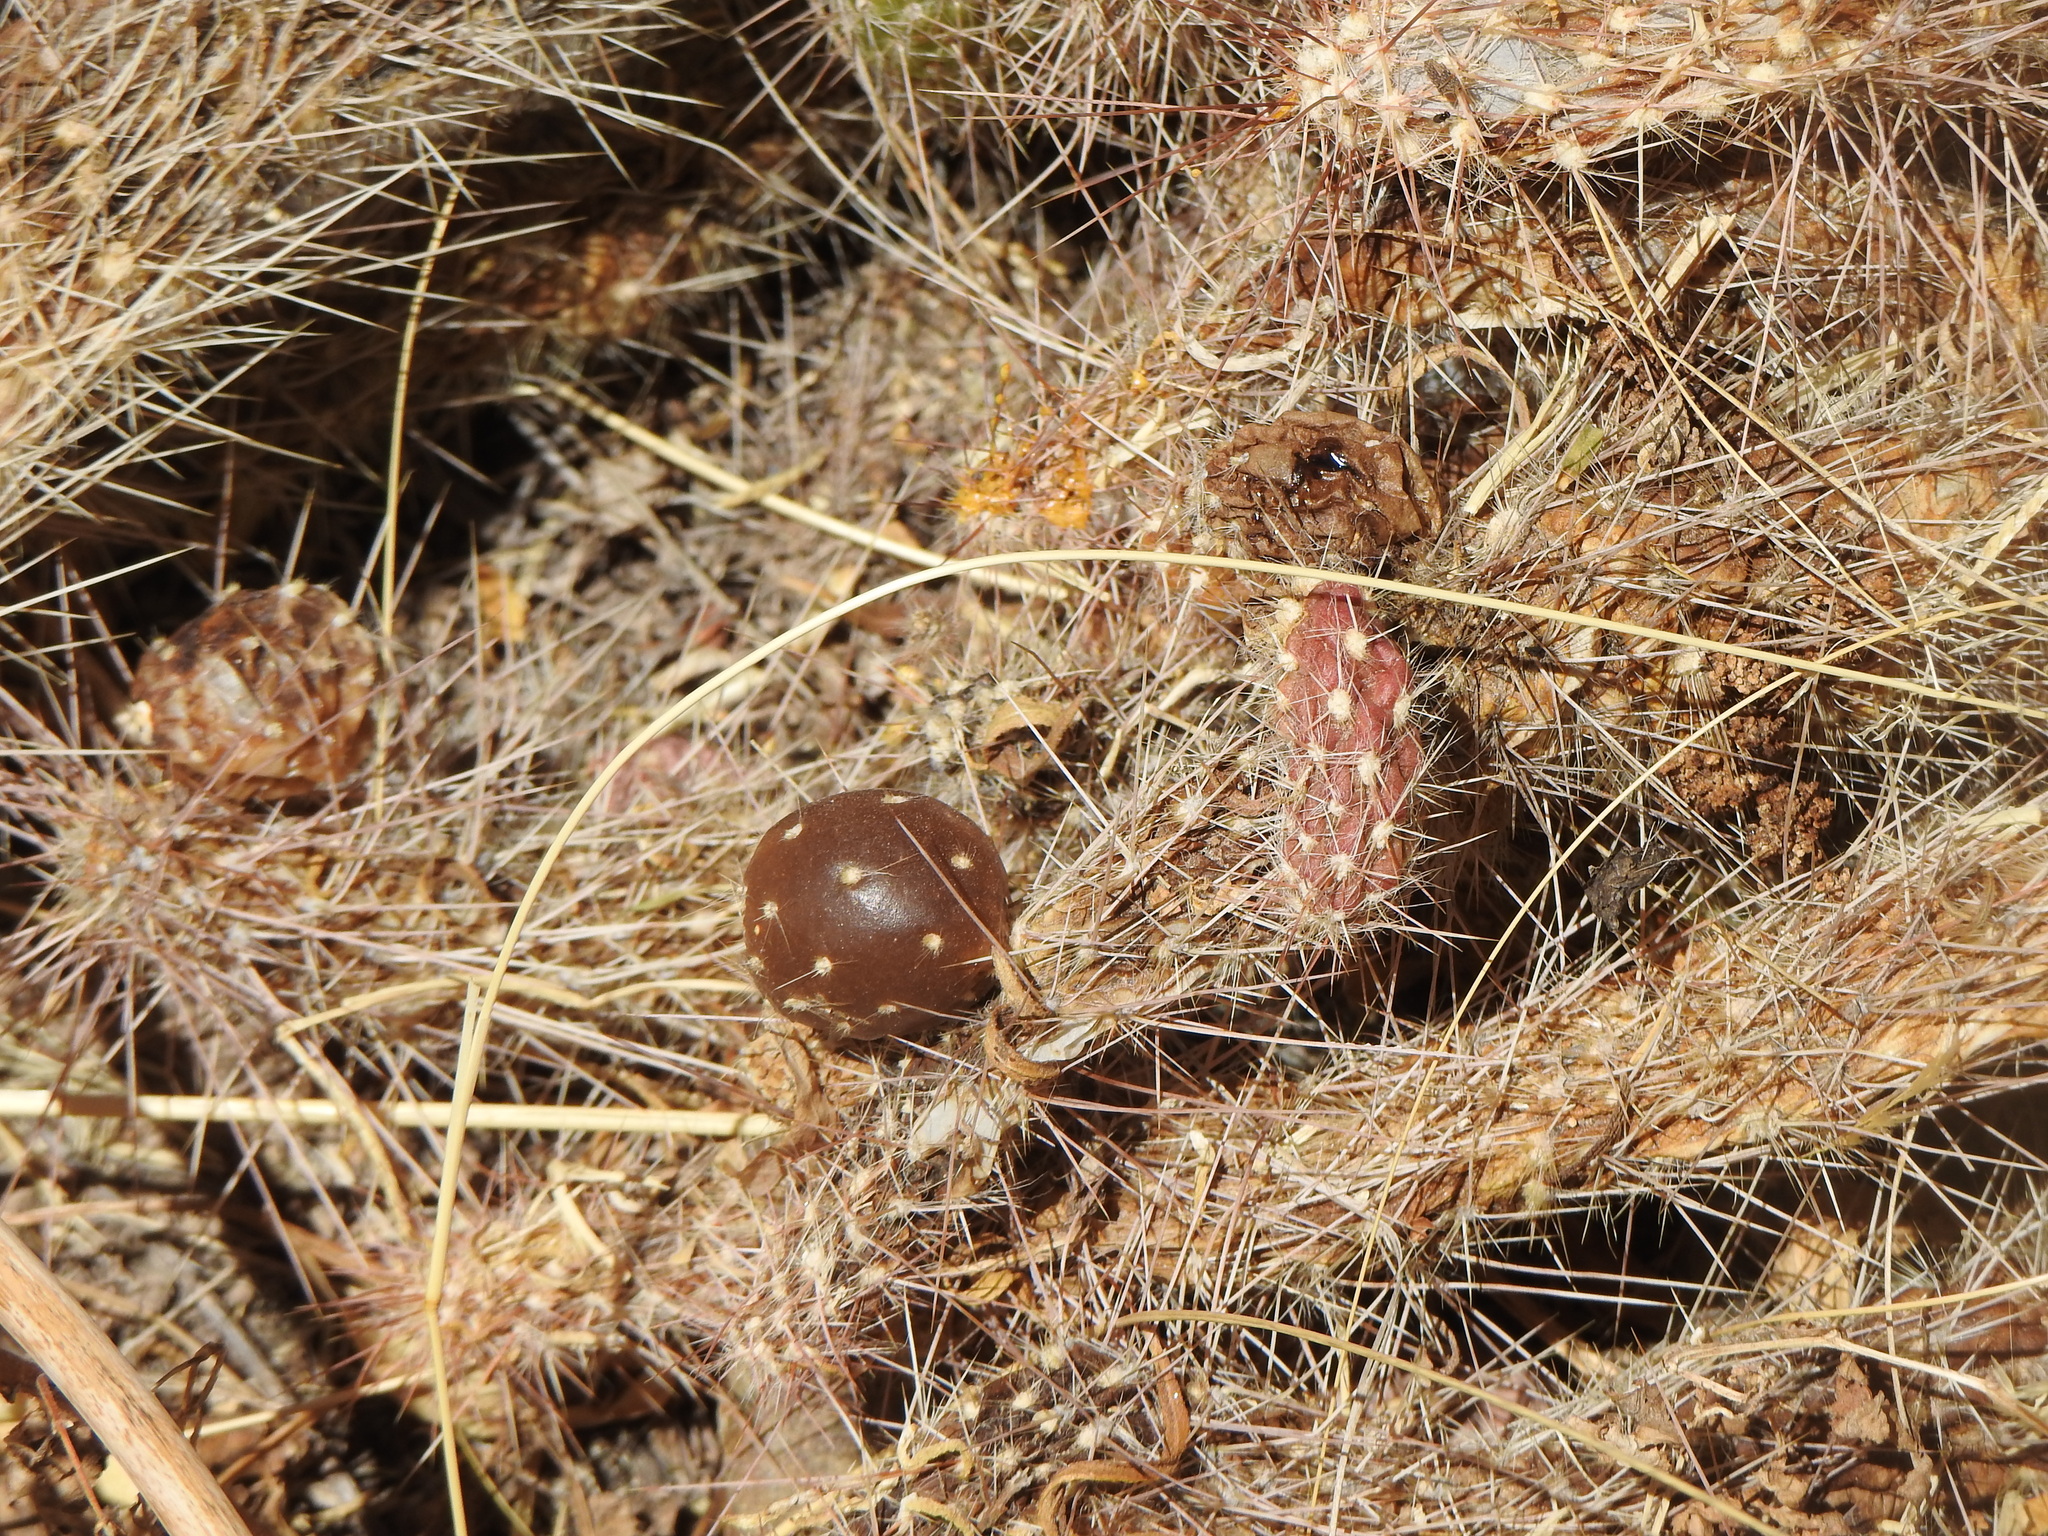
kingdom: Plantae
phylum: Tracheophyta
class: Magnoliopsida
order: Caryophyllales
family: Cactaceae
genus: Austrocylindropuntia
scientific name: Austrocylindropuntia shaferi
